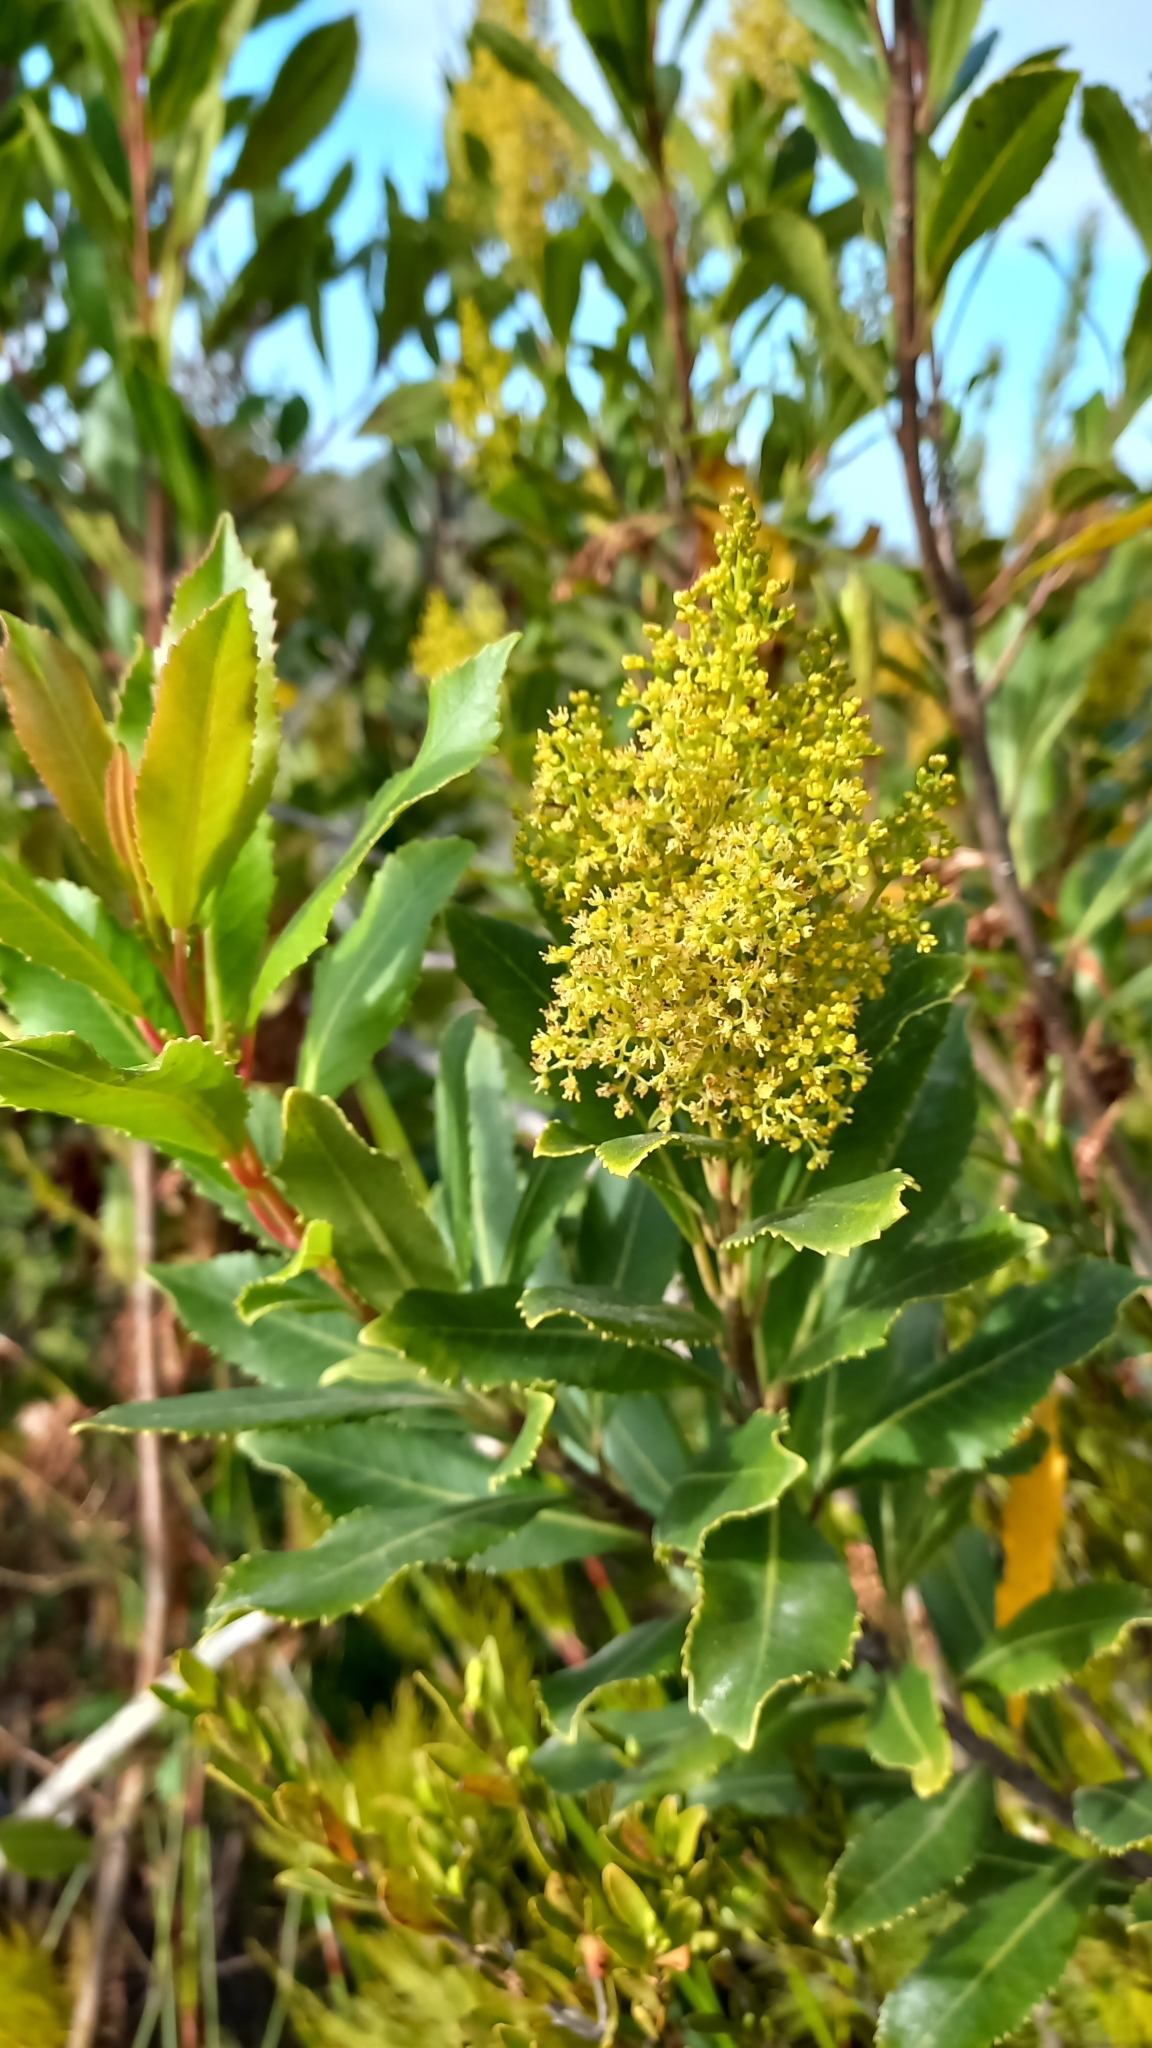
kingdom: Plantae
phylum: Tracheophyta
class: Magnoliopsida
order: Sapindales
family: Anacardiaceae
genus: Laurophyllus
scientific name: Laurophyllus capensis
